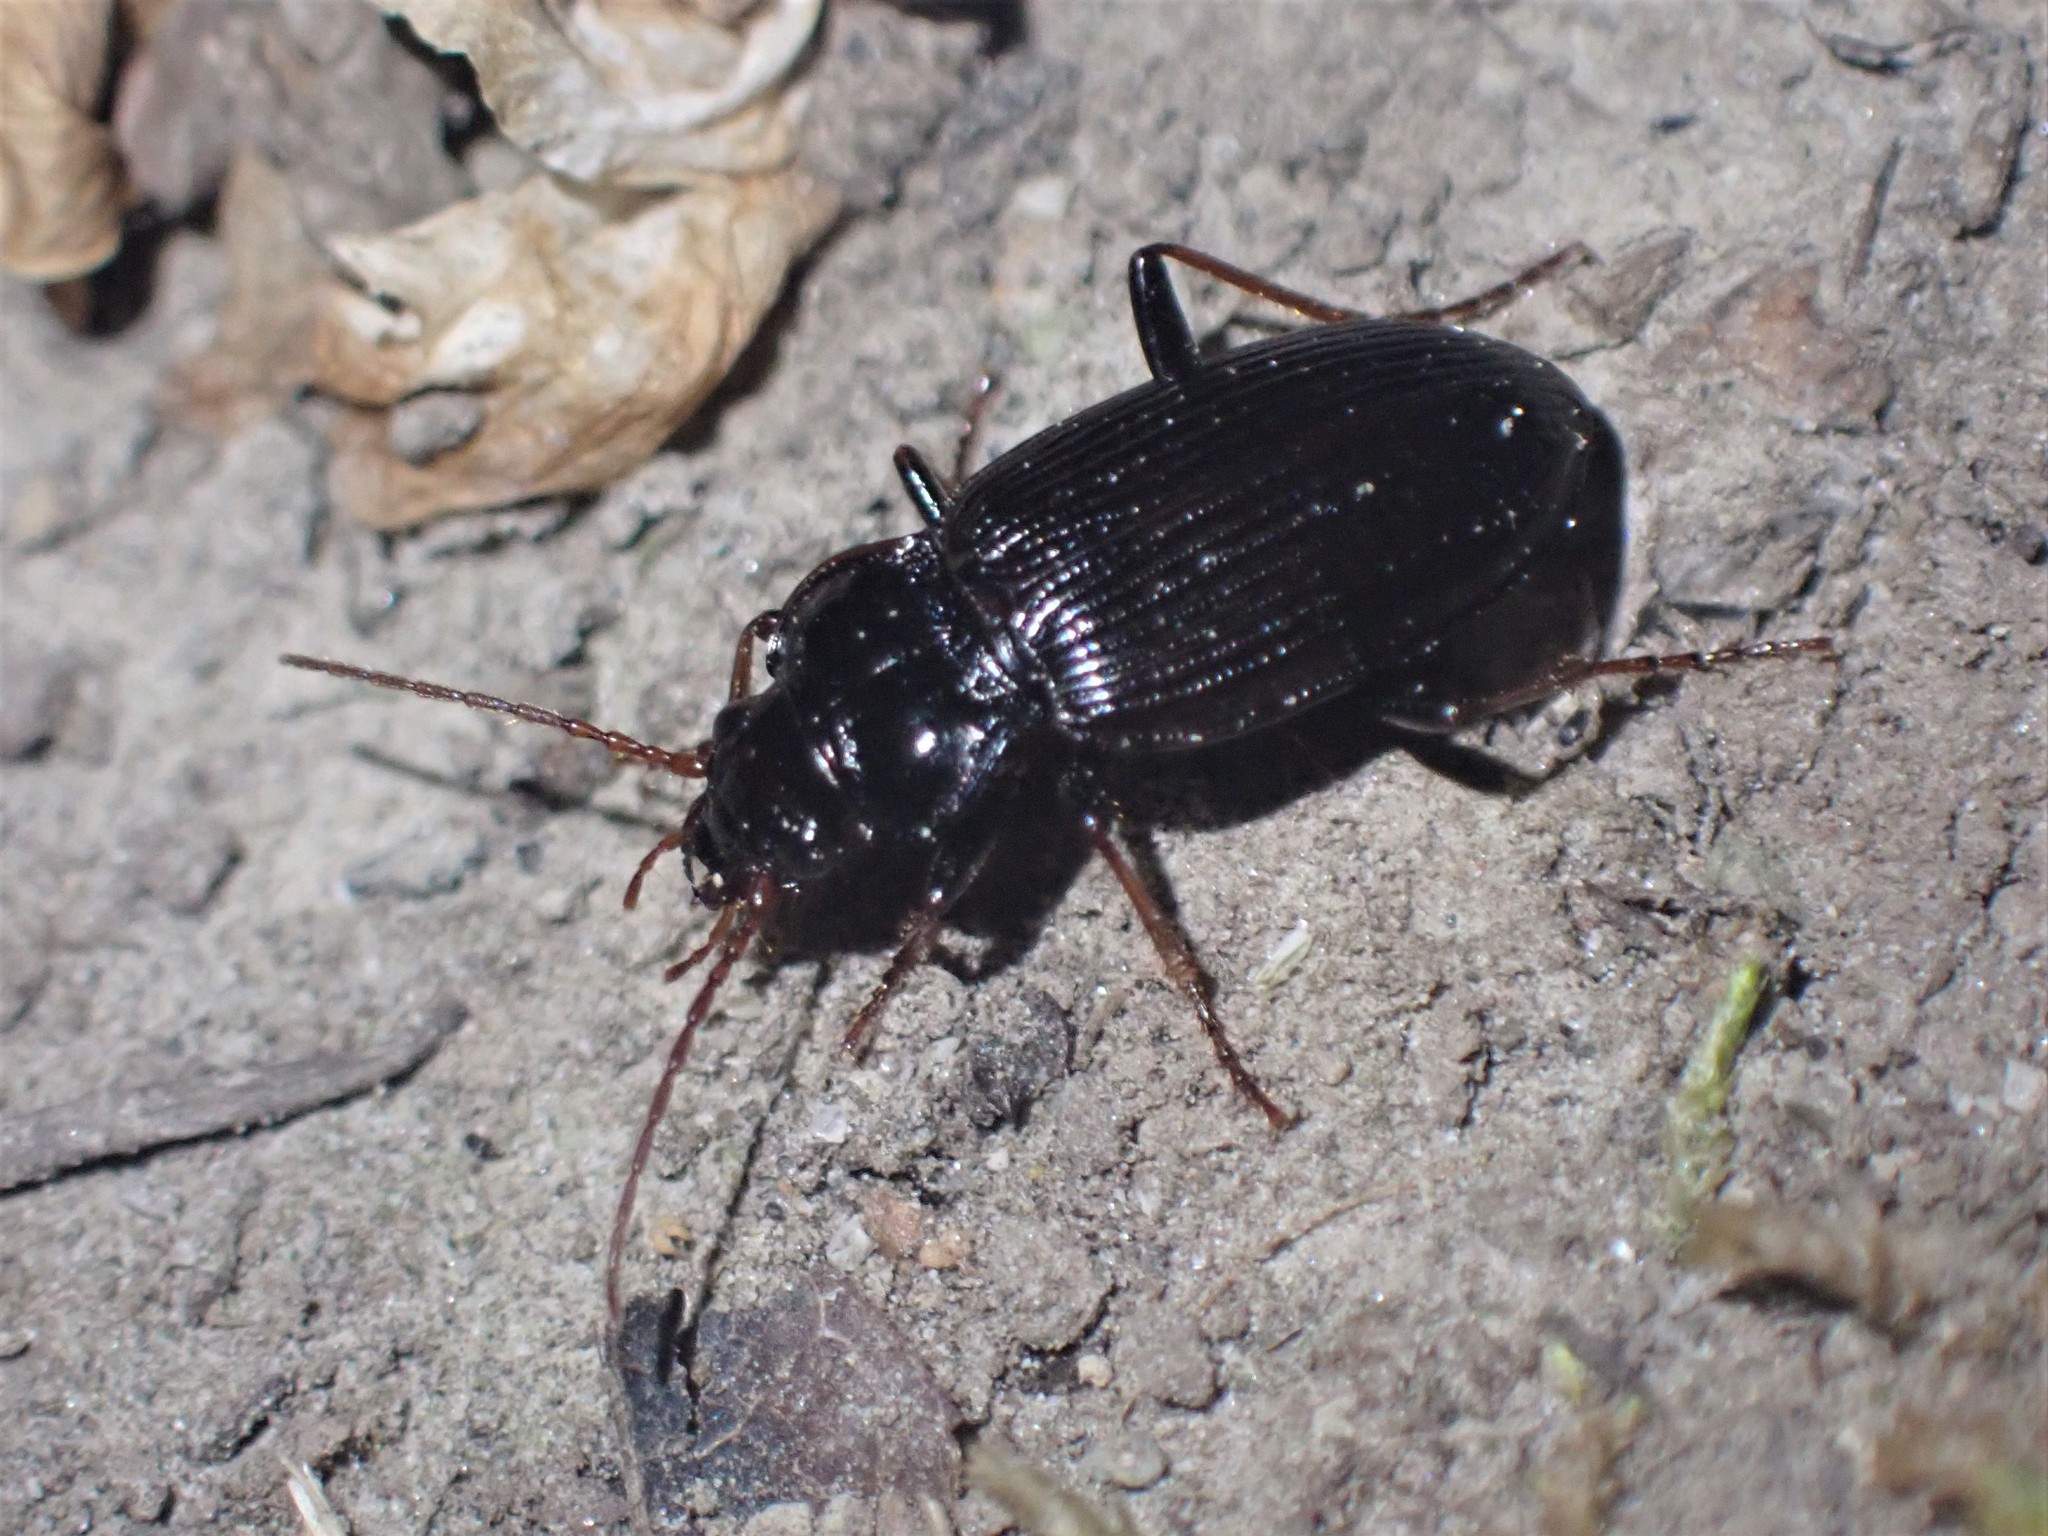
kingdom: Animalia
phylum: Arthropoda
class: Insecta
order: Coleoptera
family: Carabidae
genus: Nebria
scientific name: Nebria brevicollis
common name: Short-necked gazelle beetle
